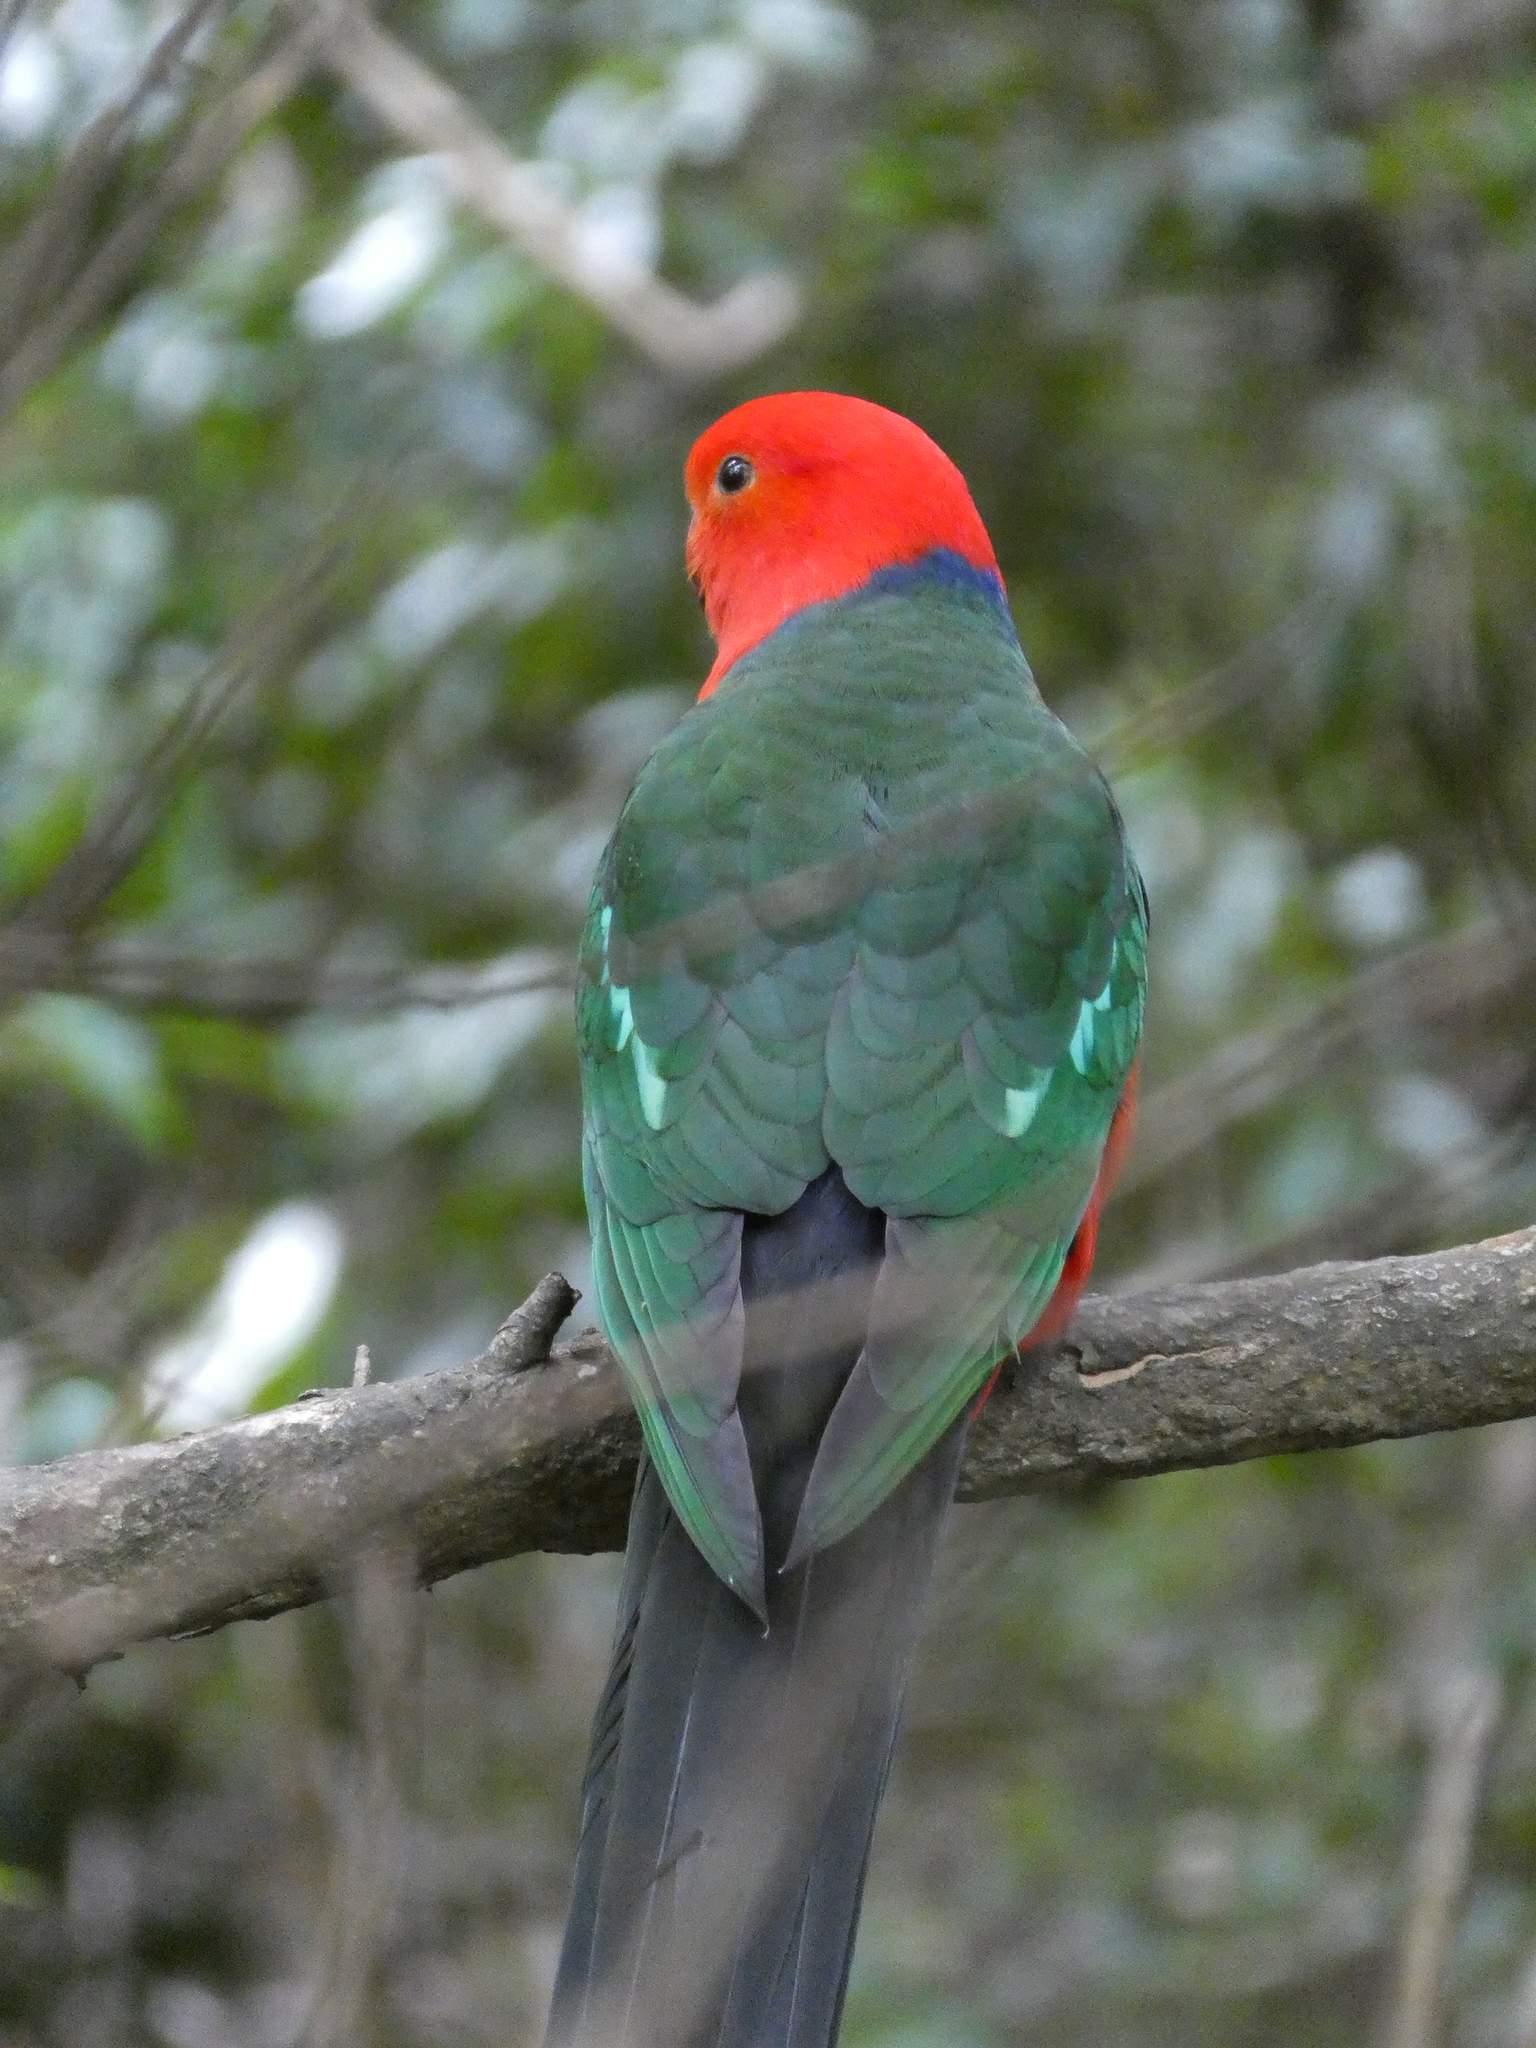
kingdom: Animalia
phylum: Chordata
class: Aves
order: Psittaciformes
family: Psittacidae
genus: Alisterus
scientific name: Alisterus scapularis
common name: Australian king parrot
